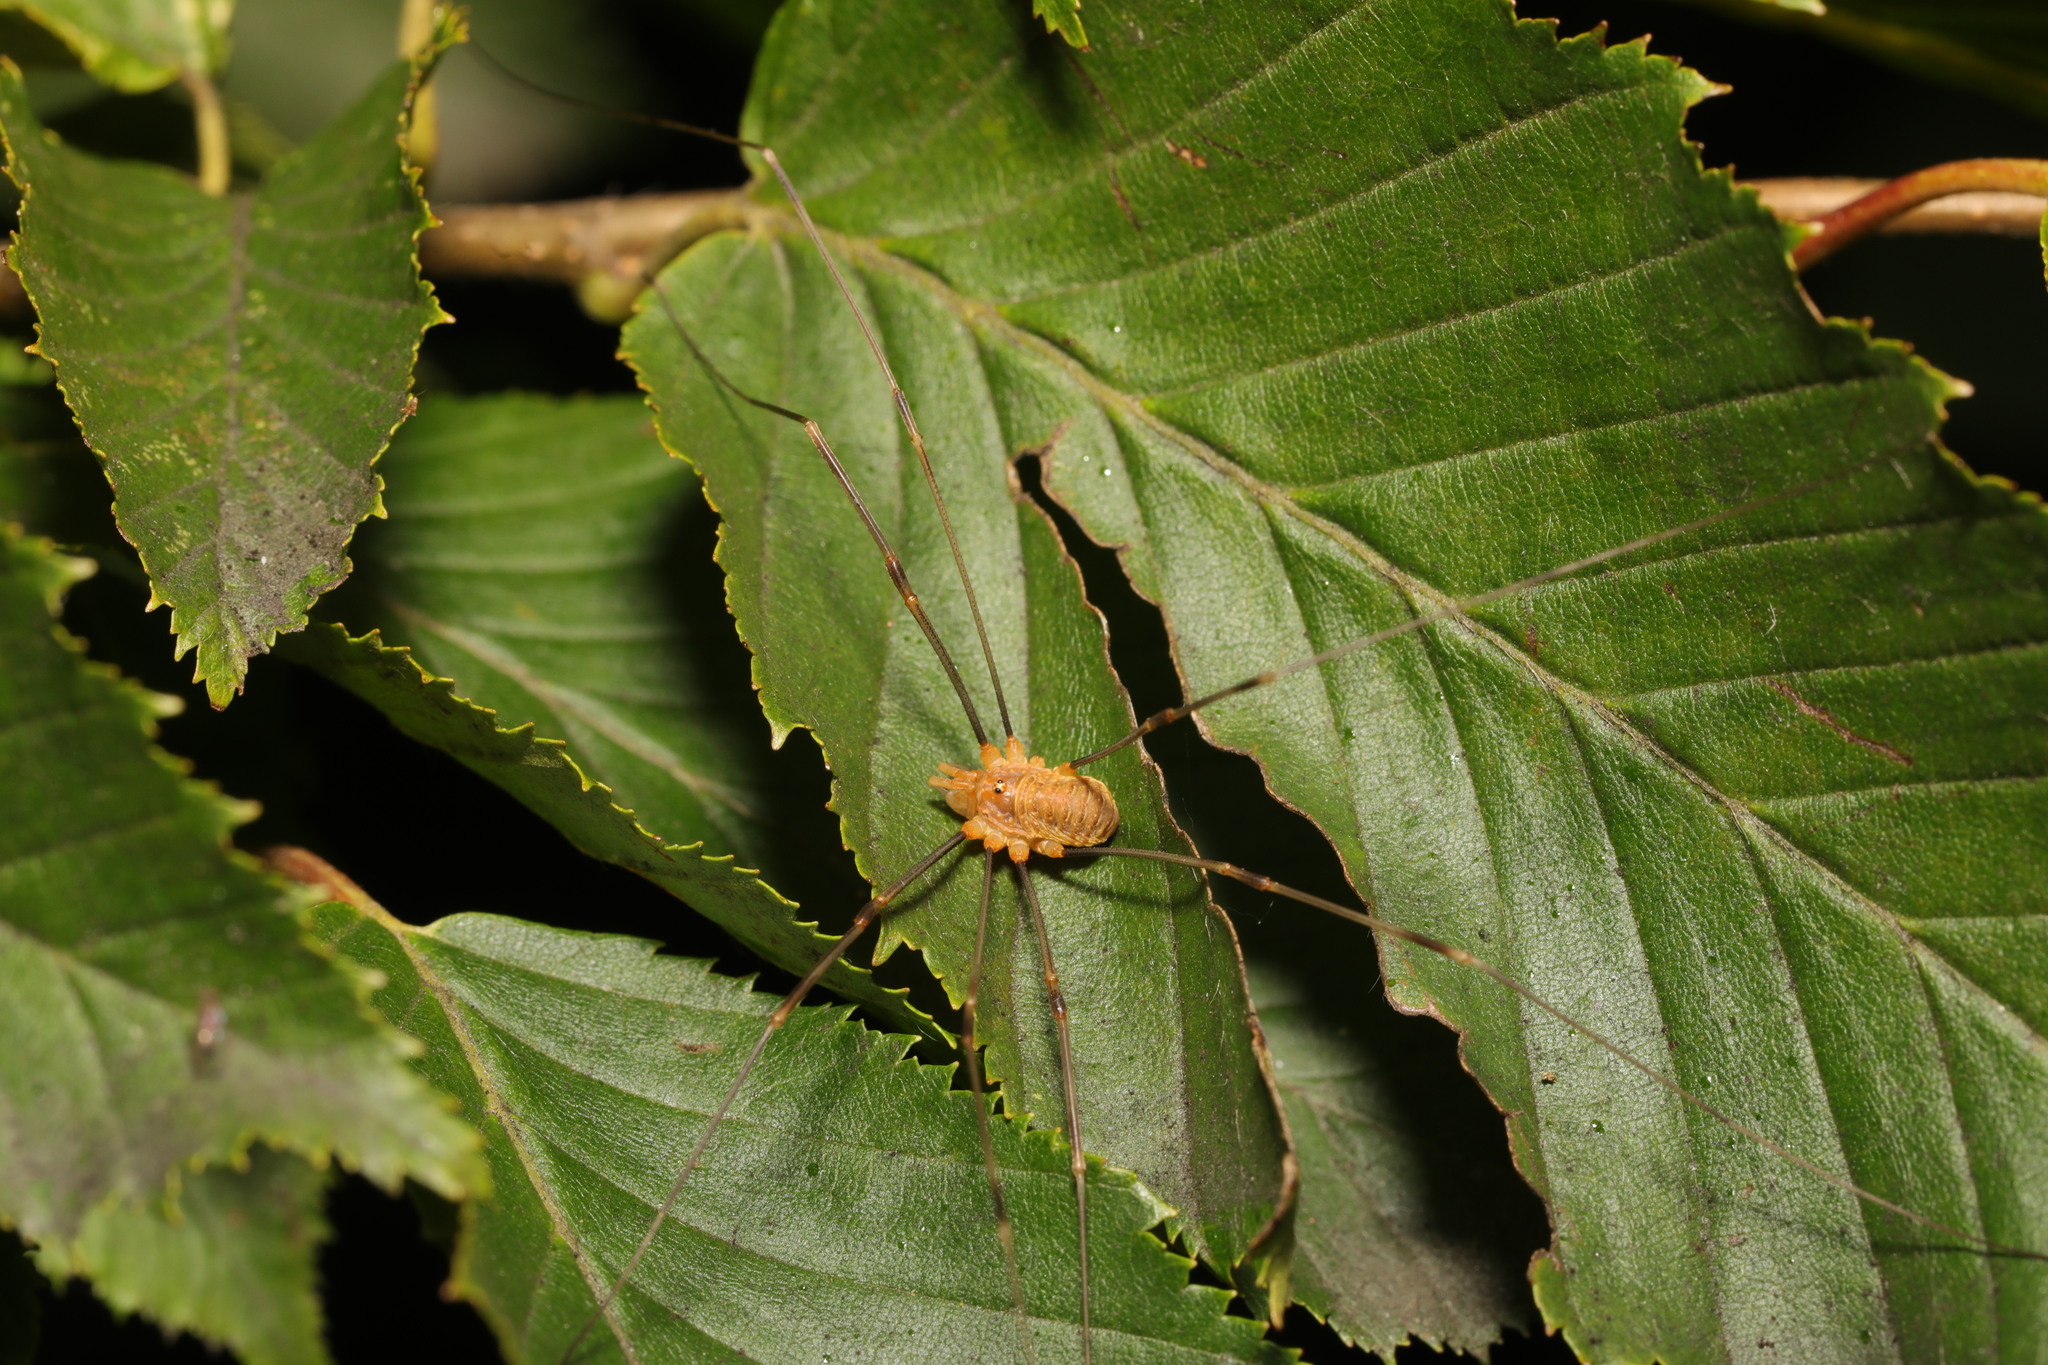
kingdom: Animalia
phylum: Arthropoda
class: Arachnida
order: Opiliones
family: Phalangiidae
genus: Opilio
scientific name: Opilio canestrinii
